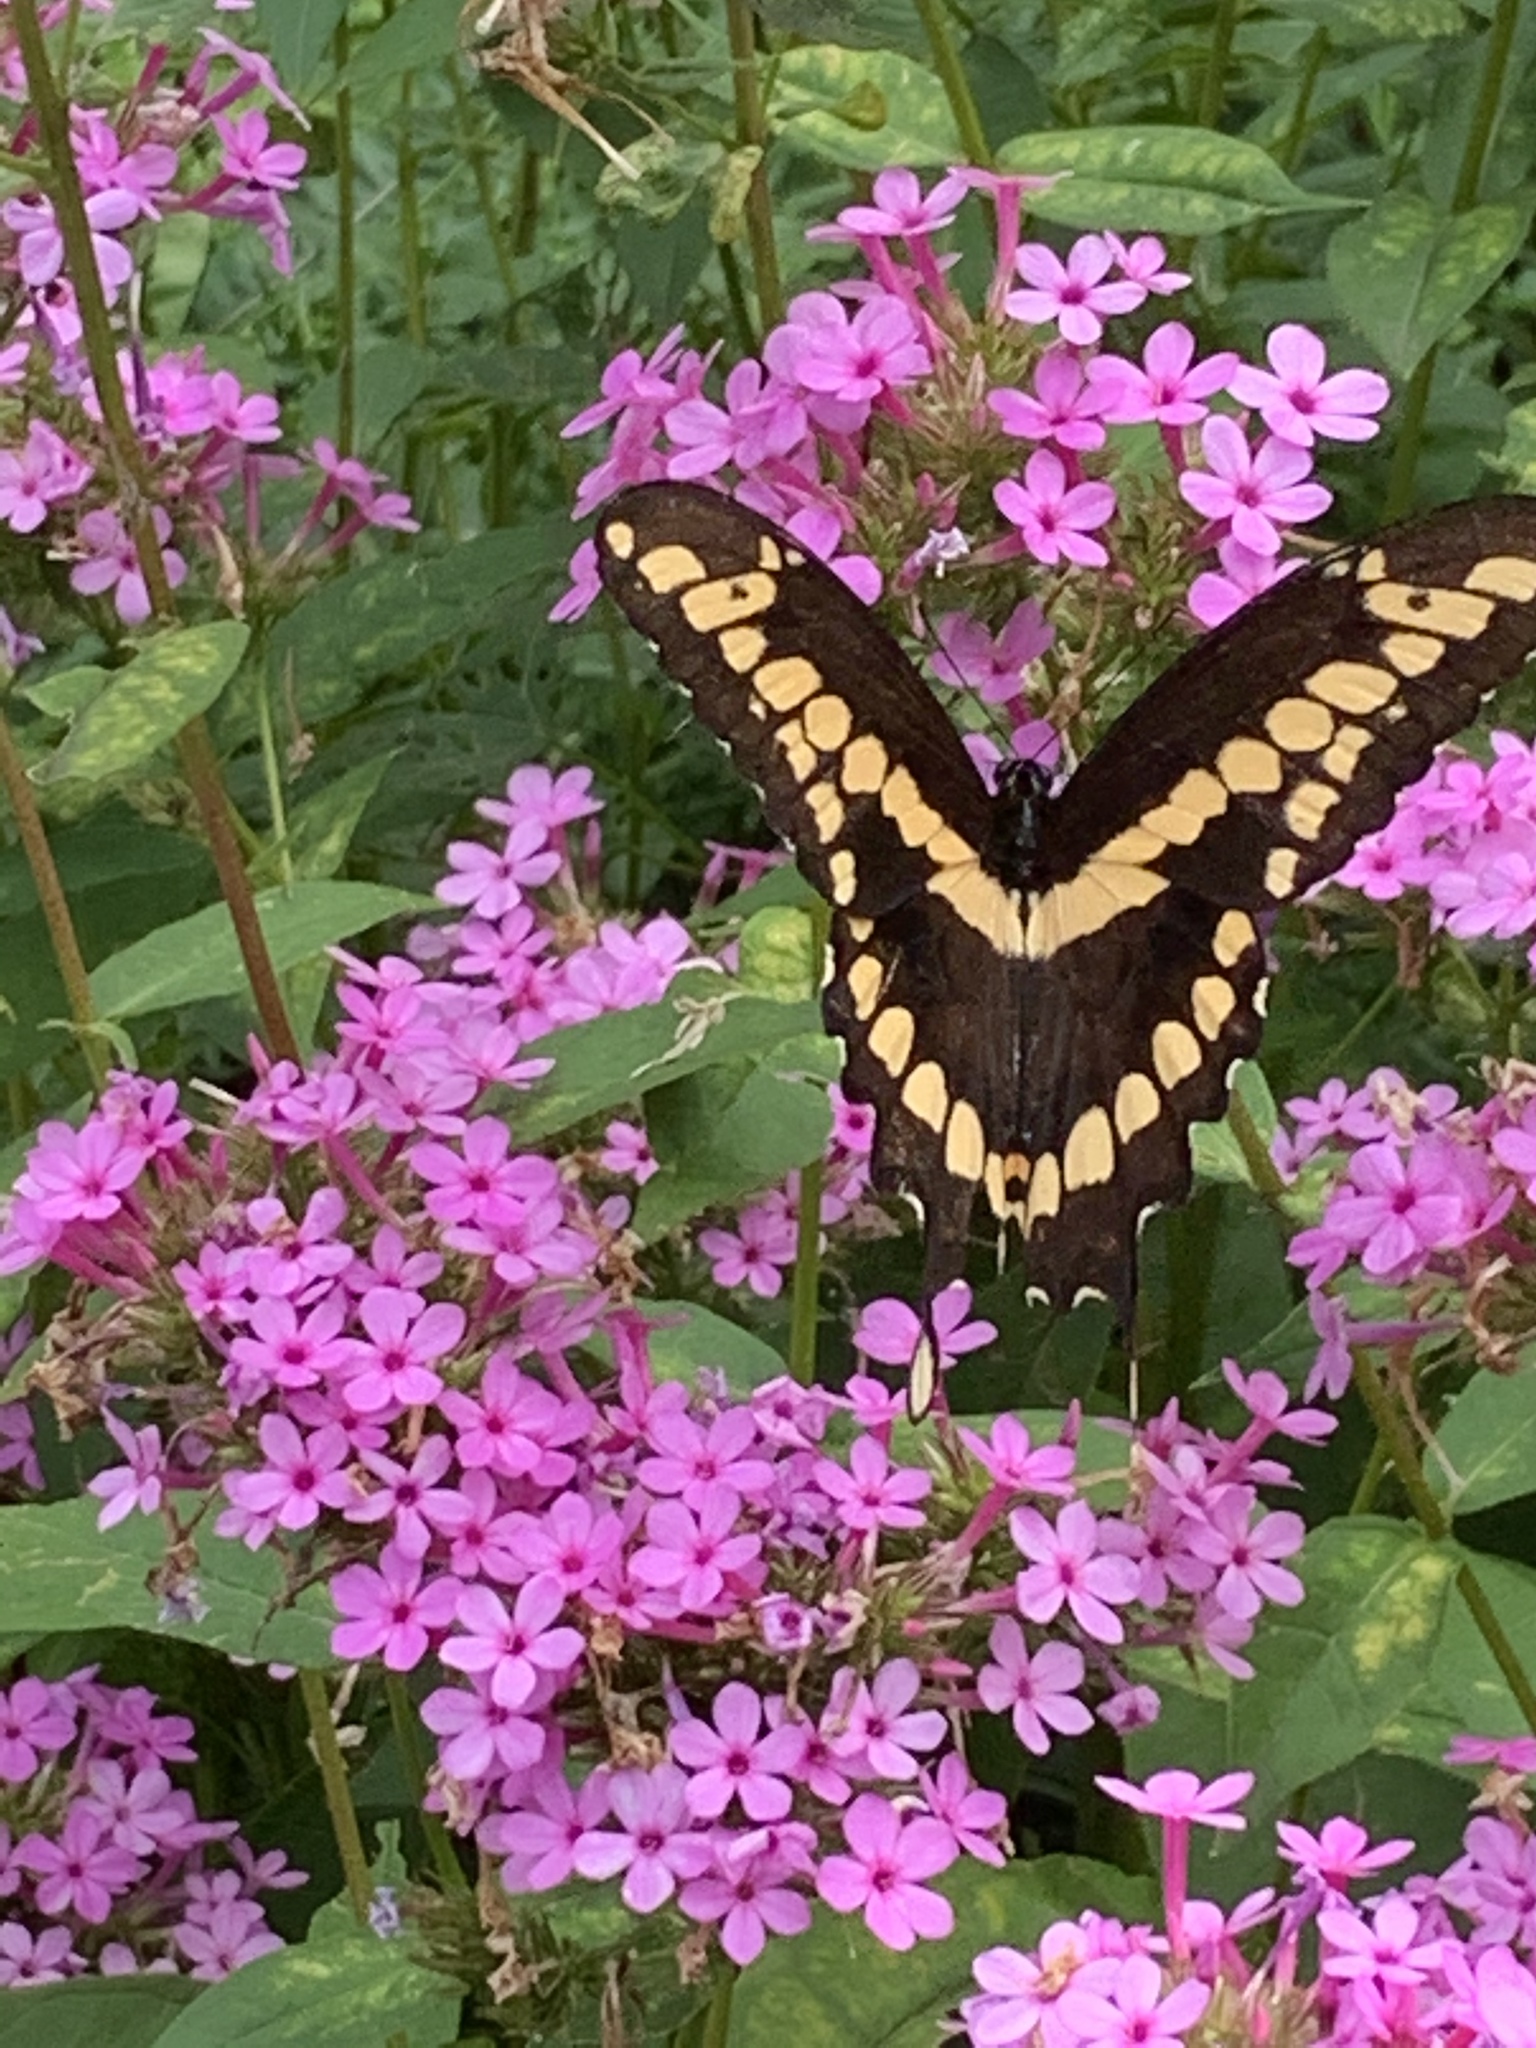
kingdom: Animalia
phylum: Arthropoda
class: Insecta
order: Lepidoptera
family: Papilionidae
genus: Papilio
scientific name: Papilio cresphontes
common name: Giant swallowtail
